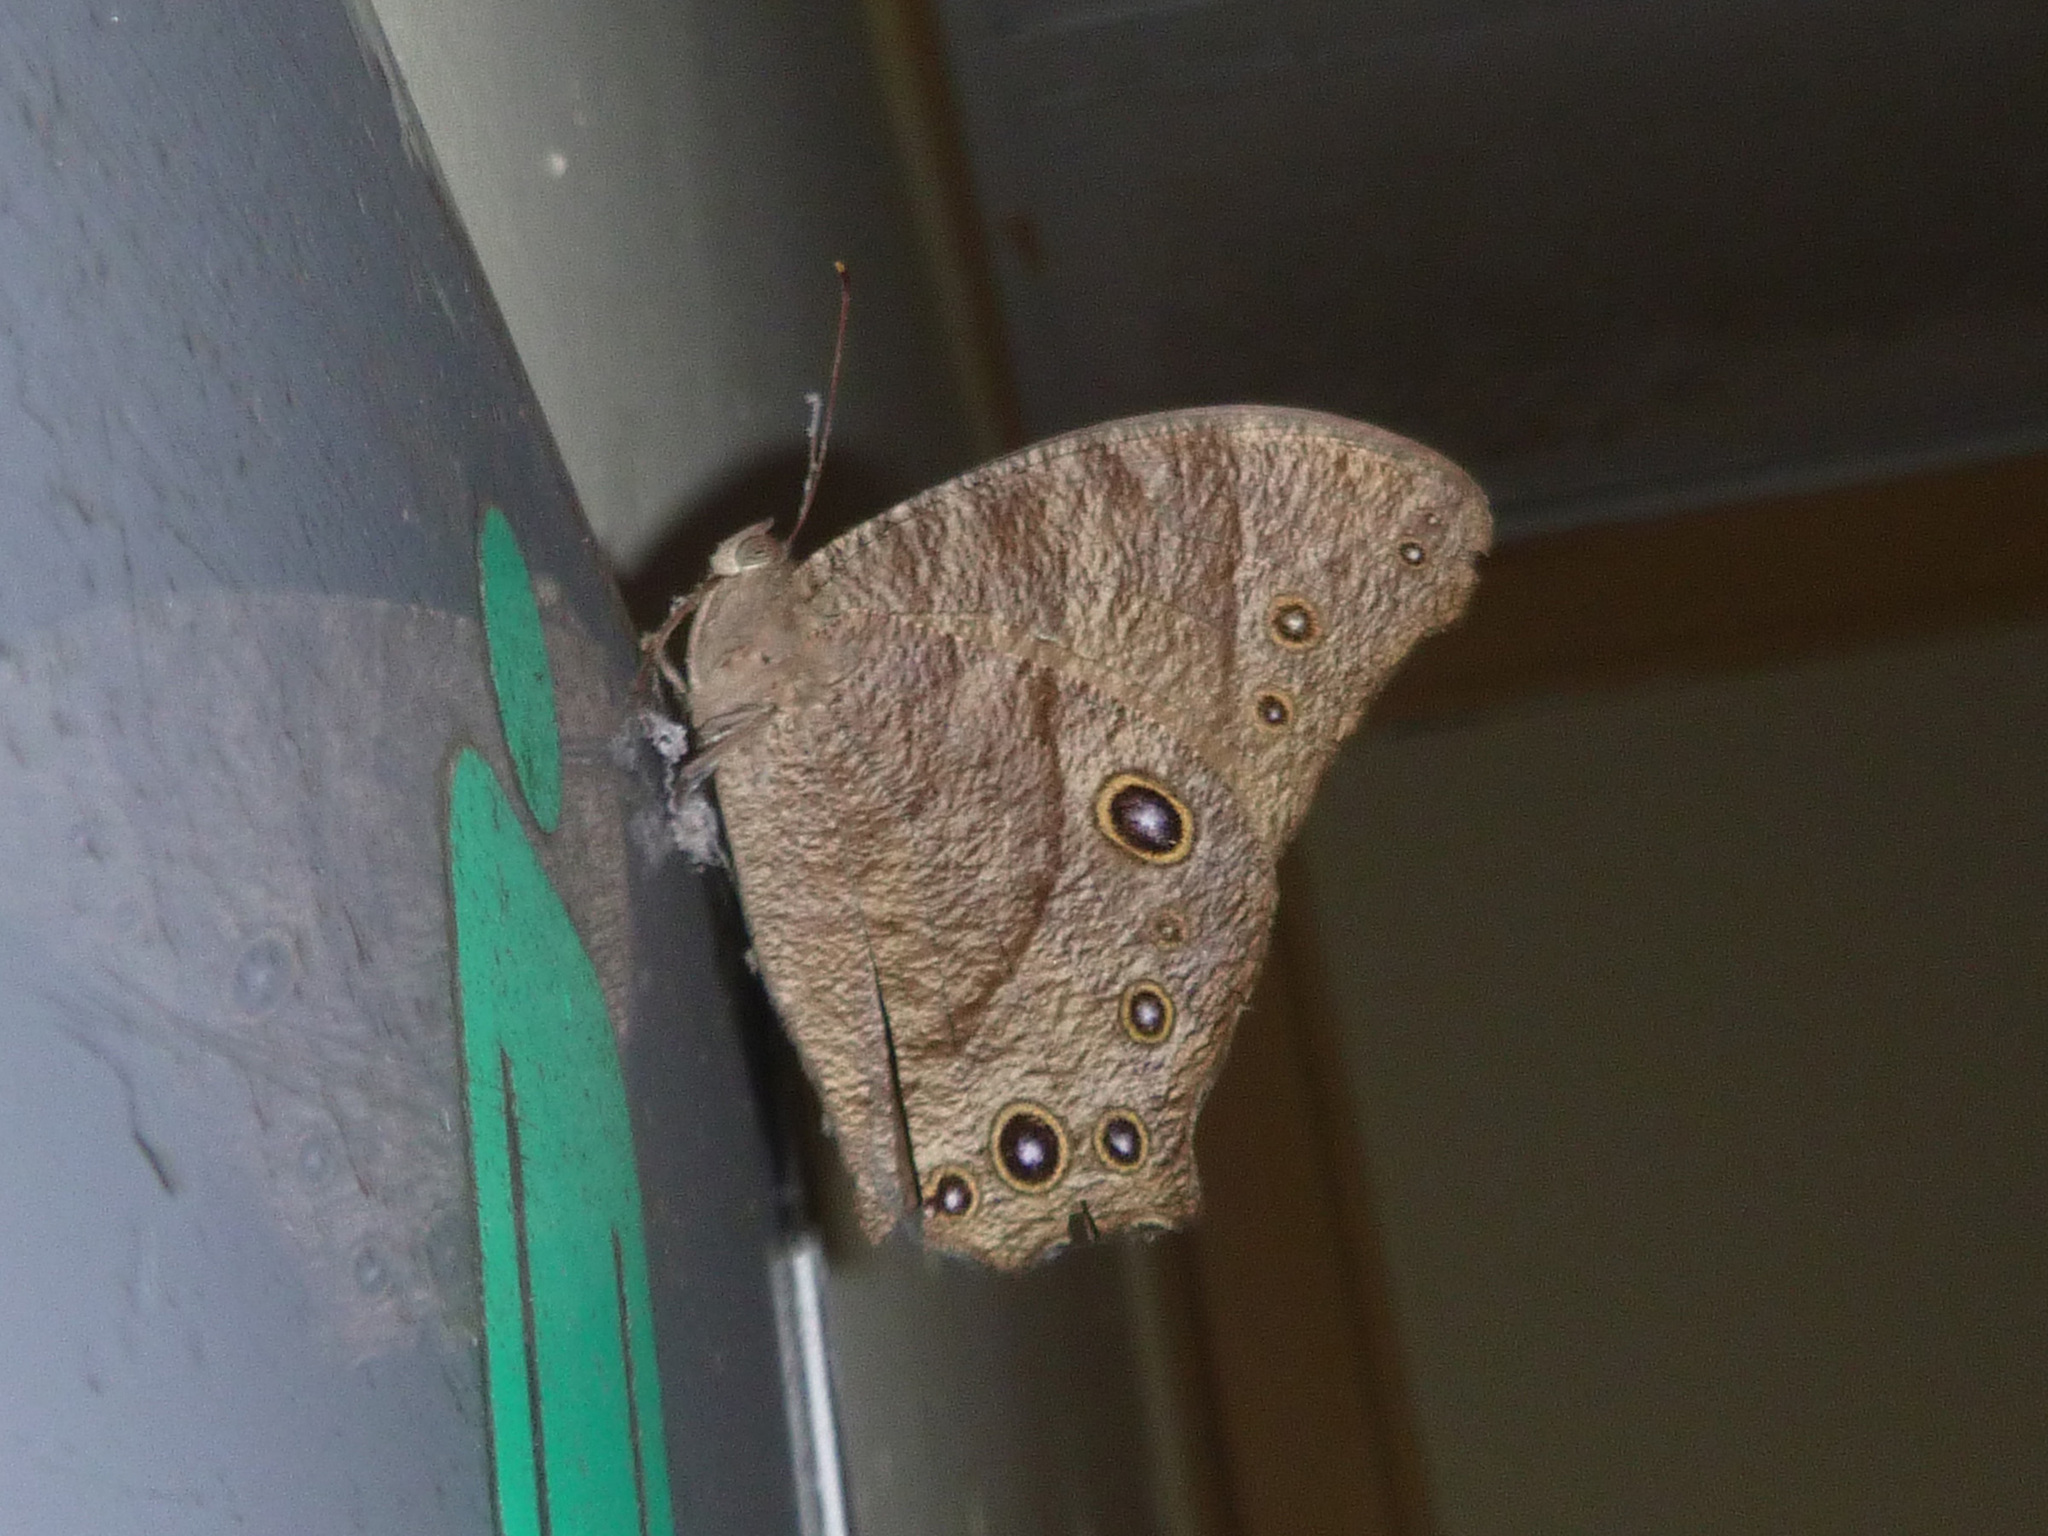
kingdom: Animalia
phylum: Arthropoda
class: Insecta
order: Lepidoptera
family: Nymphalidae
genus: Melanitis
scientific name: Melanitis leda
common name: Twilight brown
